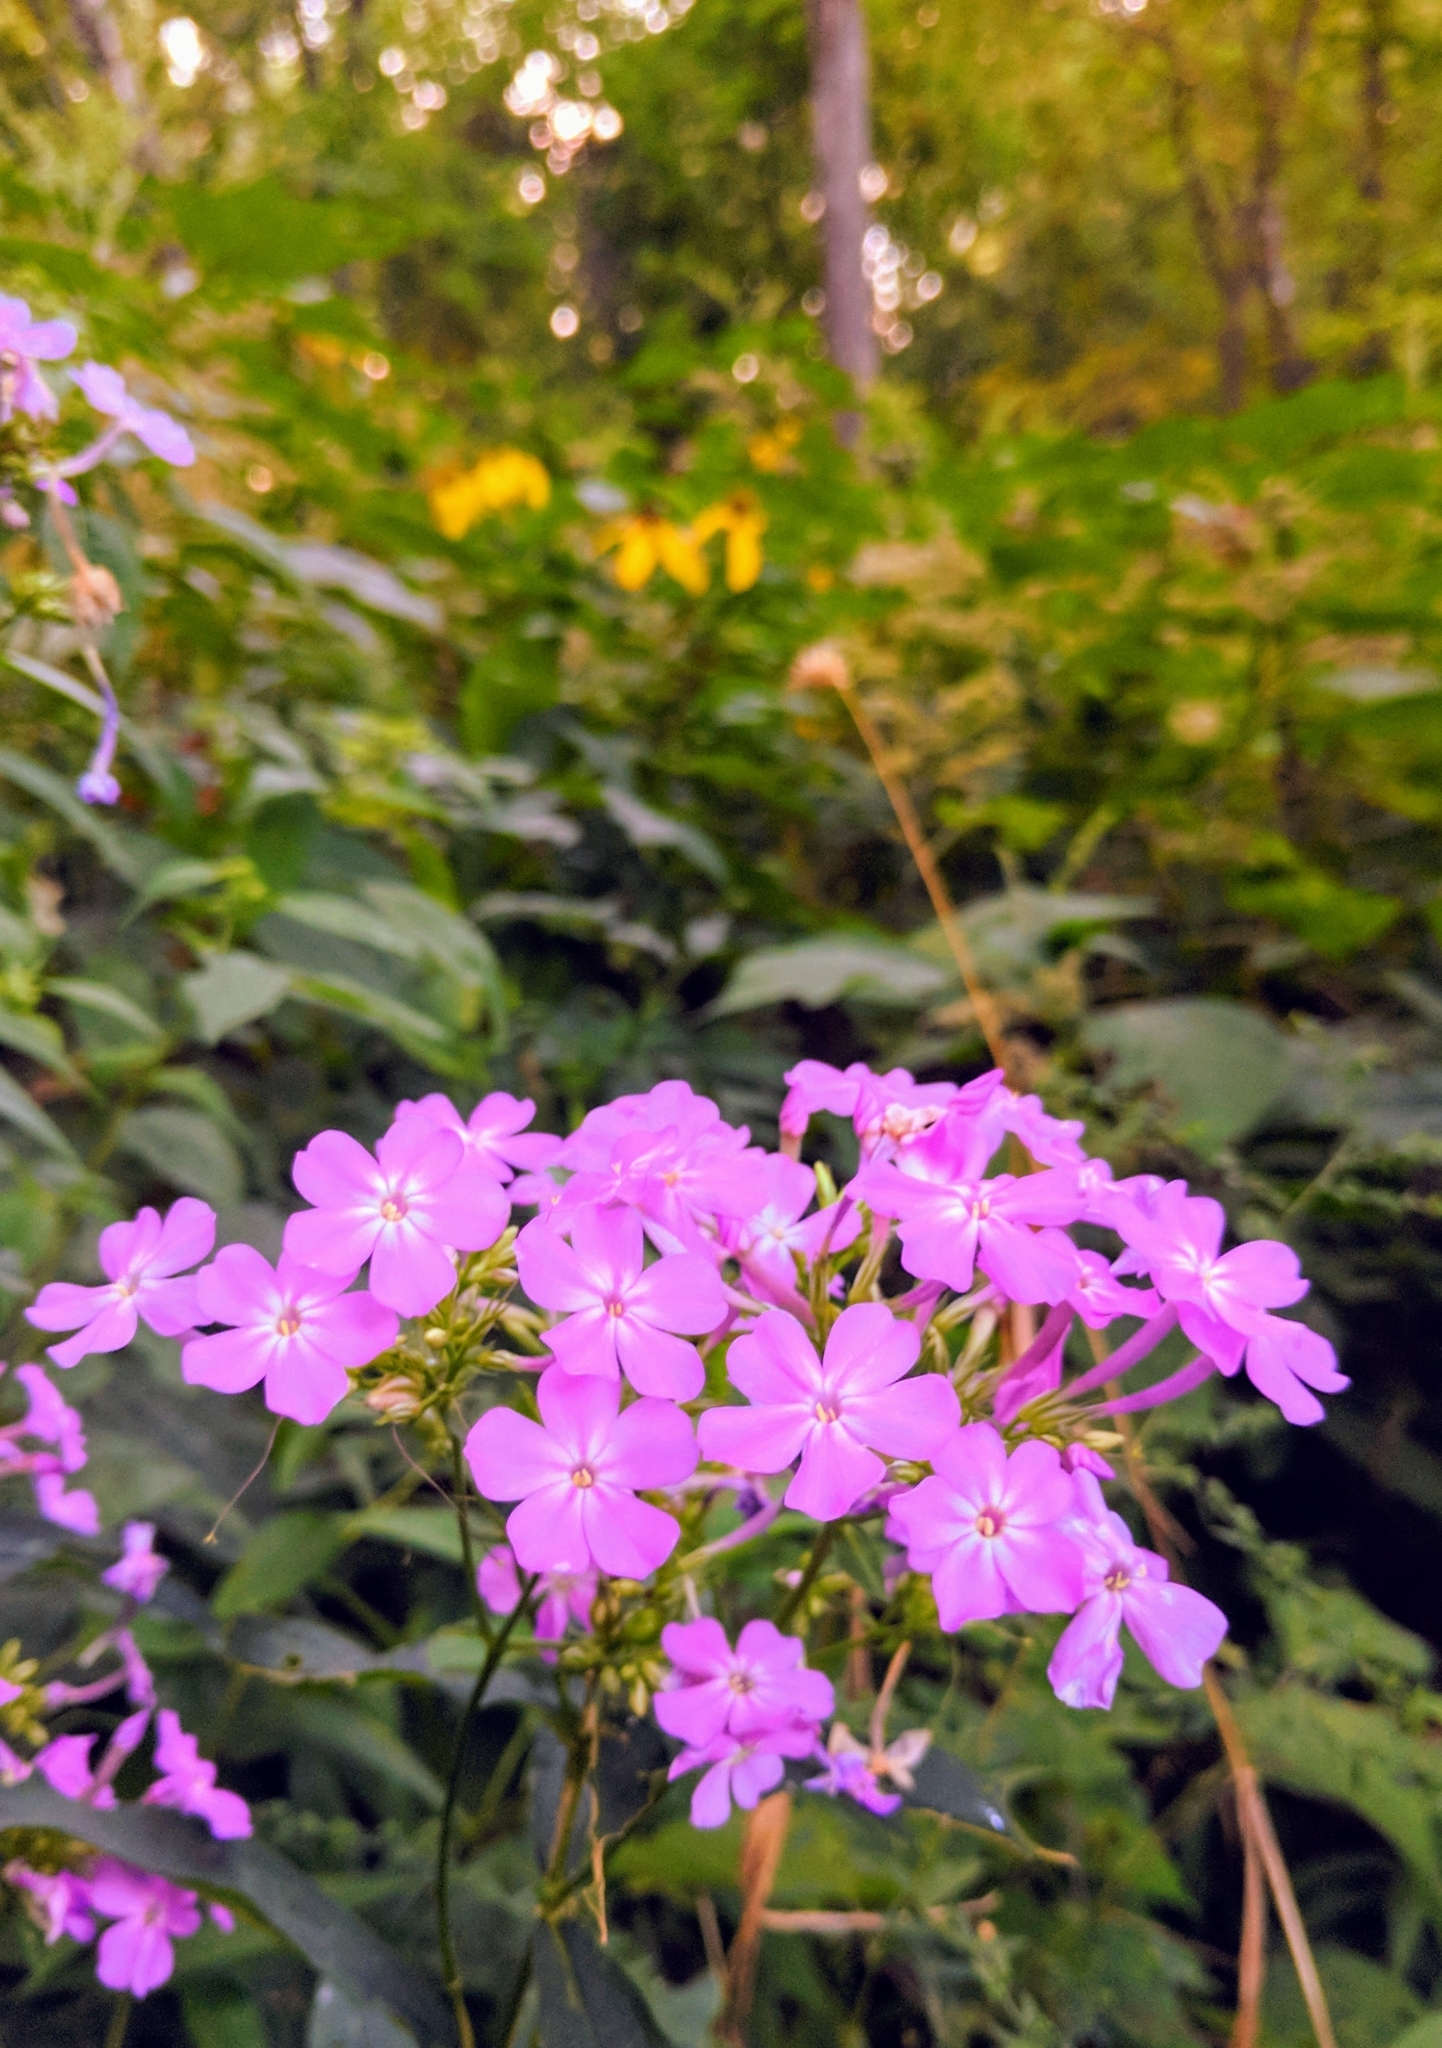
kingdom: Plantae
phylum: Tracheophyta
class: Magnoliopsida
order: Ericales
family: Polemoniaceae
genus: Phlox
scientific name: Phlox paniculata
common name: Fall phlox
